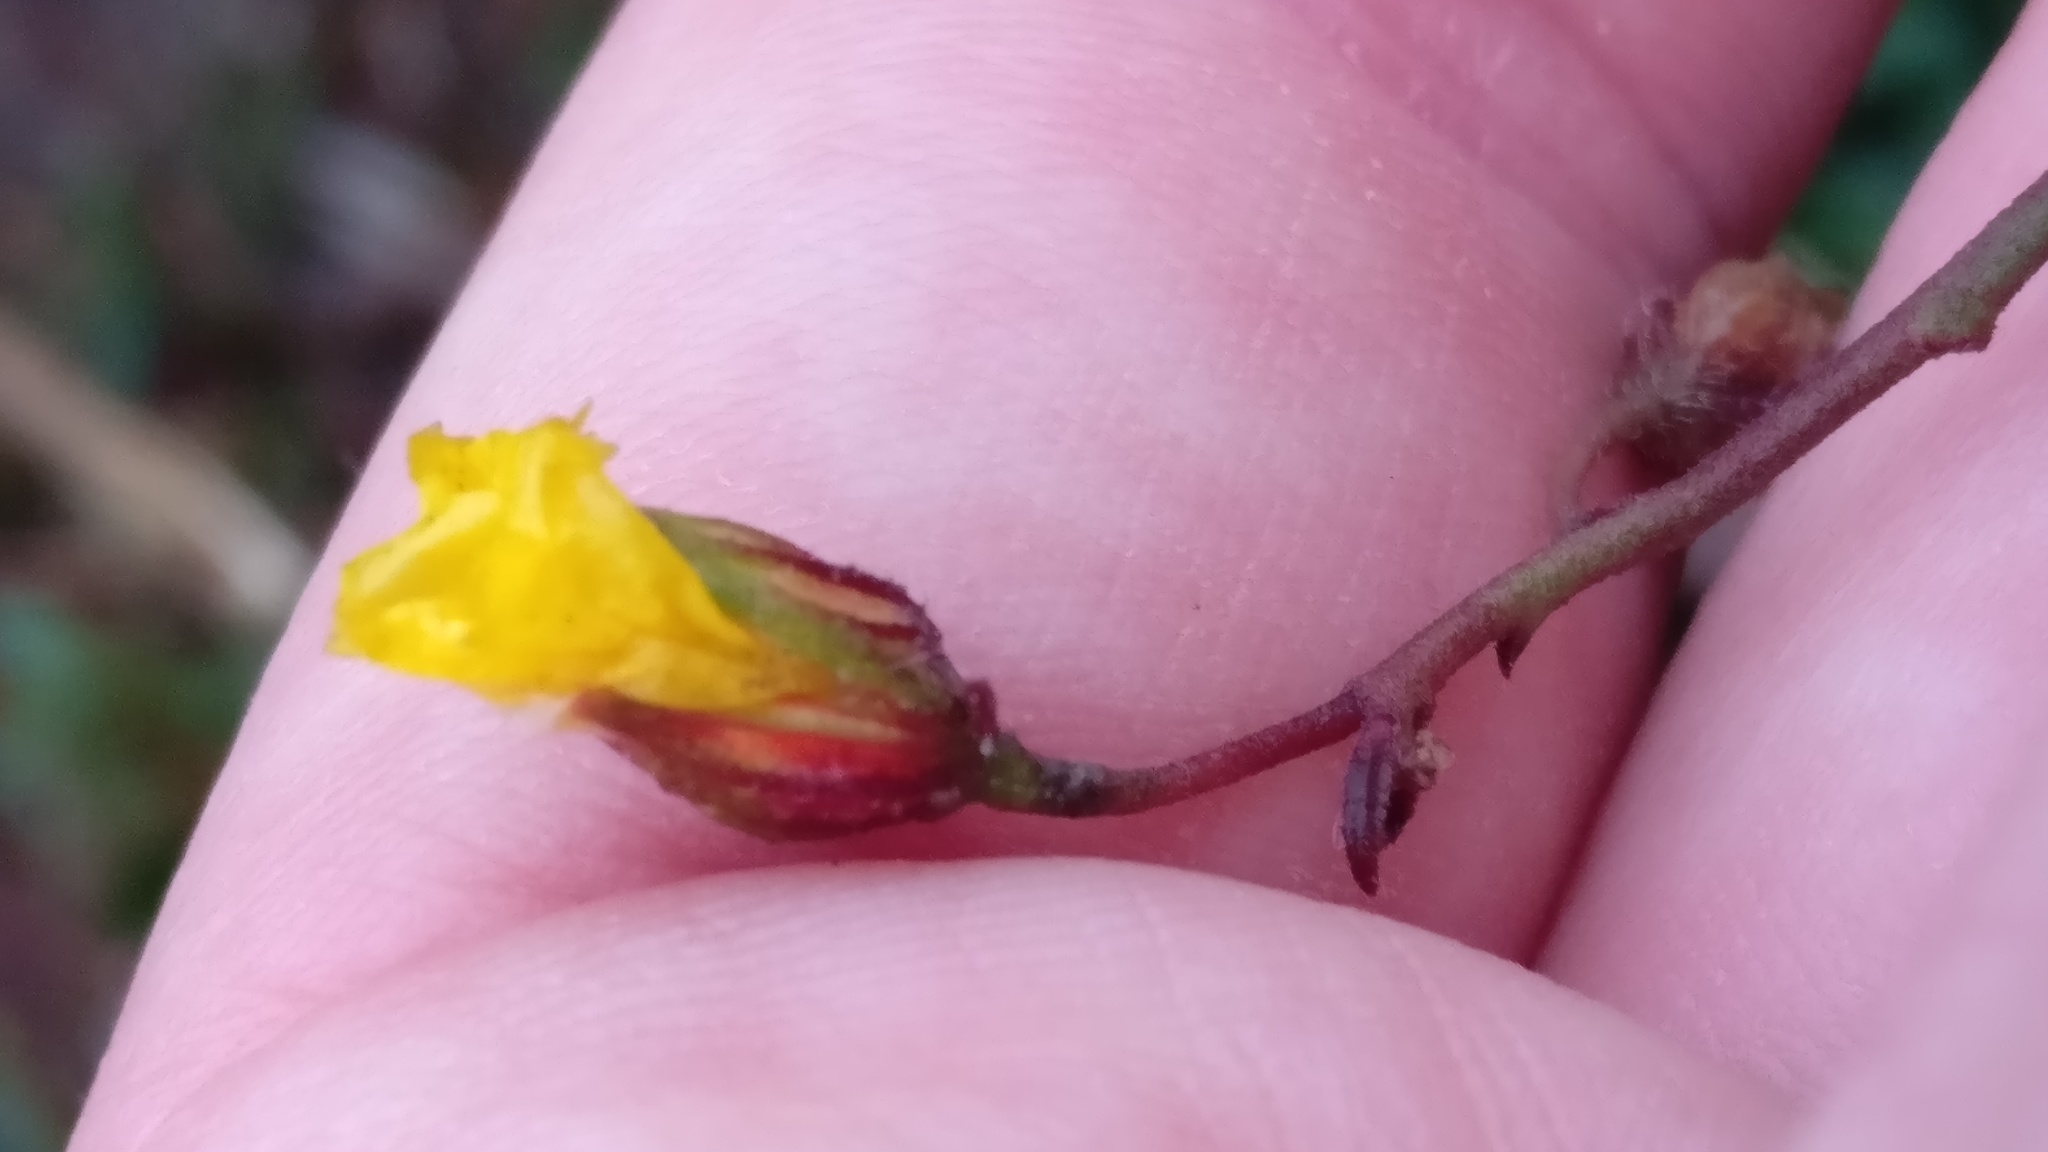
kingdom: Plantae
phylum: Tracheophyta
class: Magnoliopsida
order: Malvales
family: Cistaceae
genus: Helianthemum
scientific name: Helianthemum nummularium
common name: Common rock-rose
